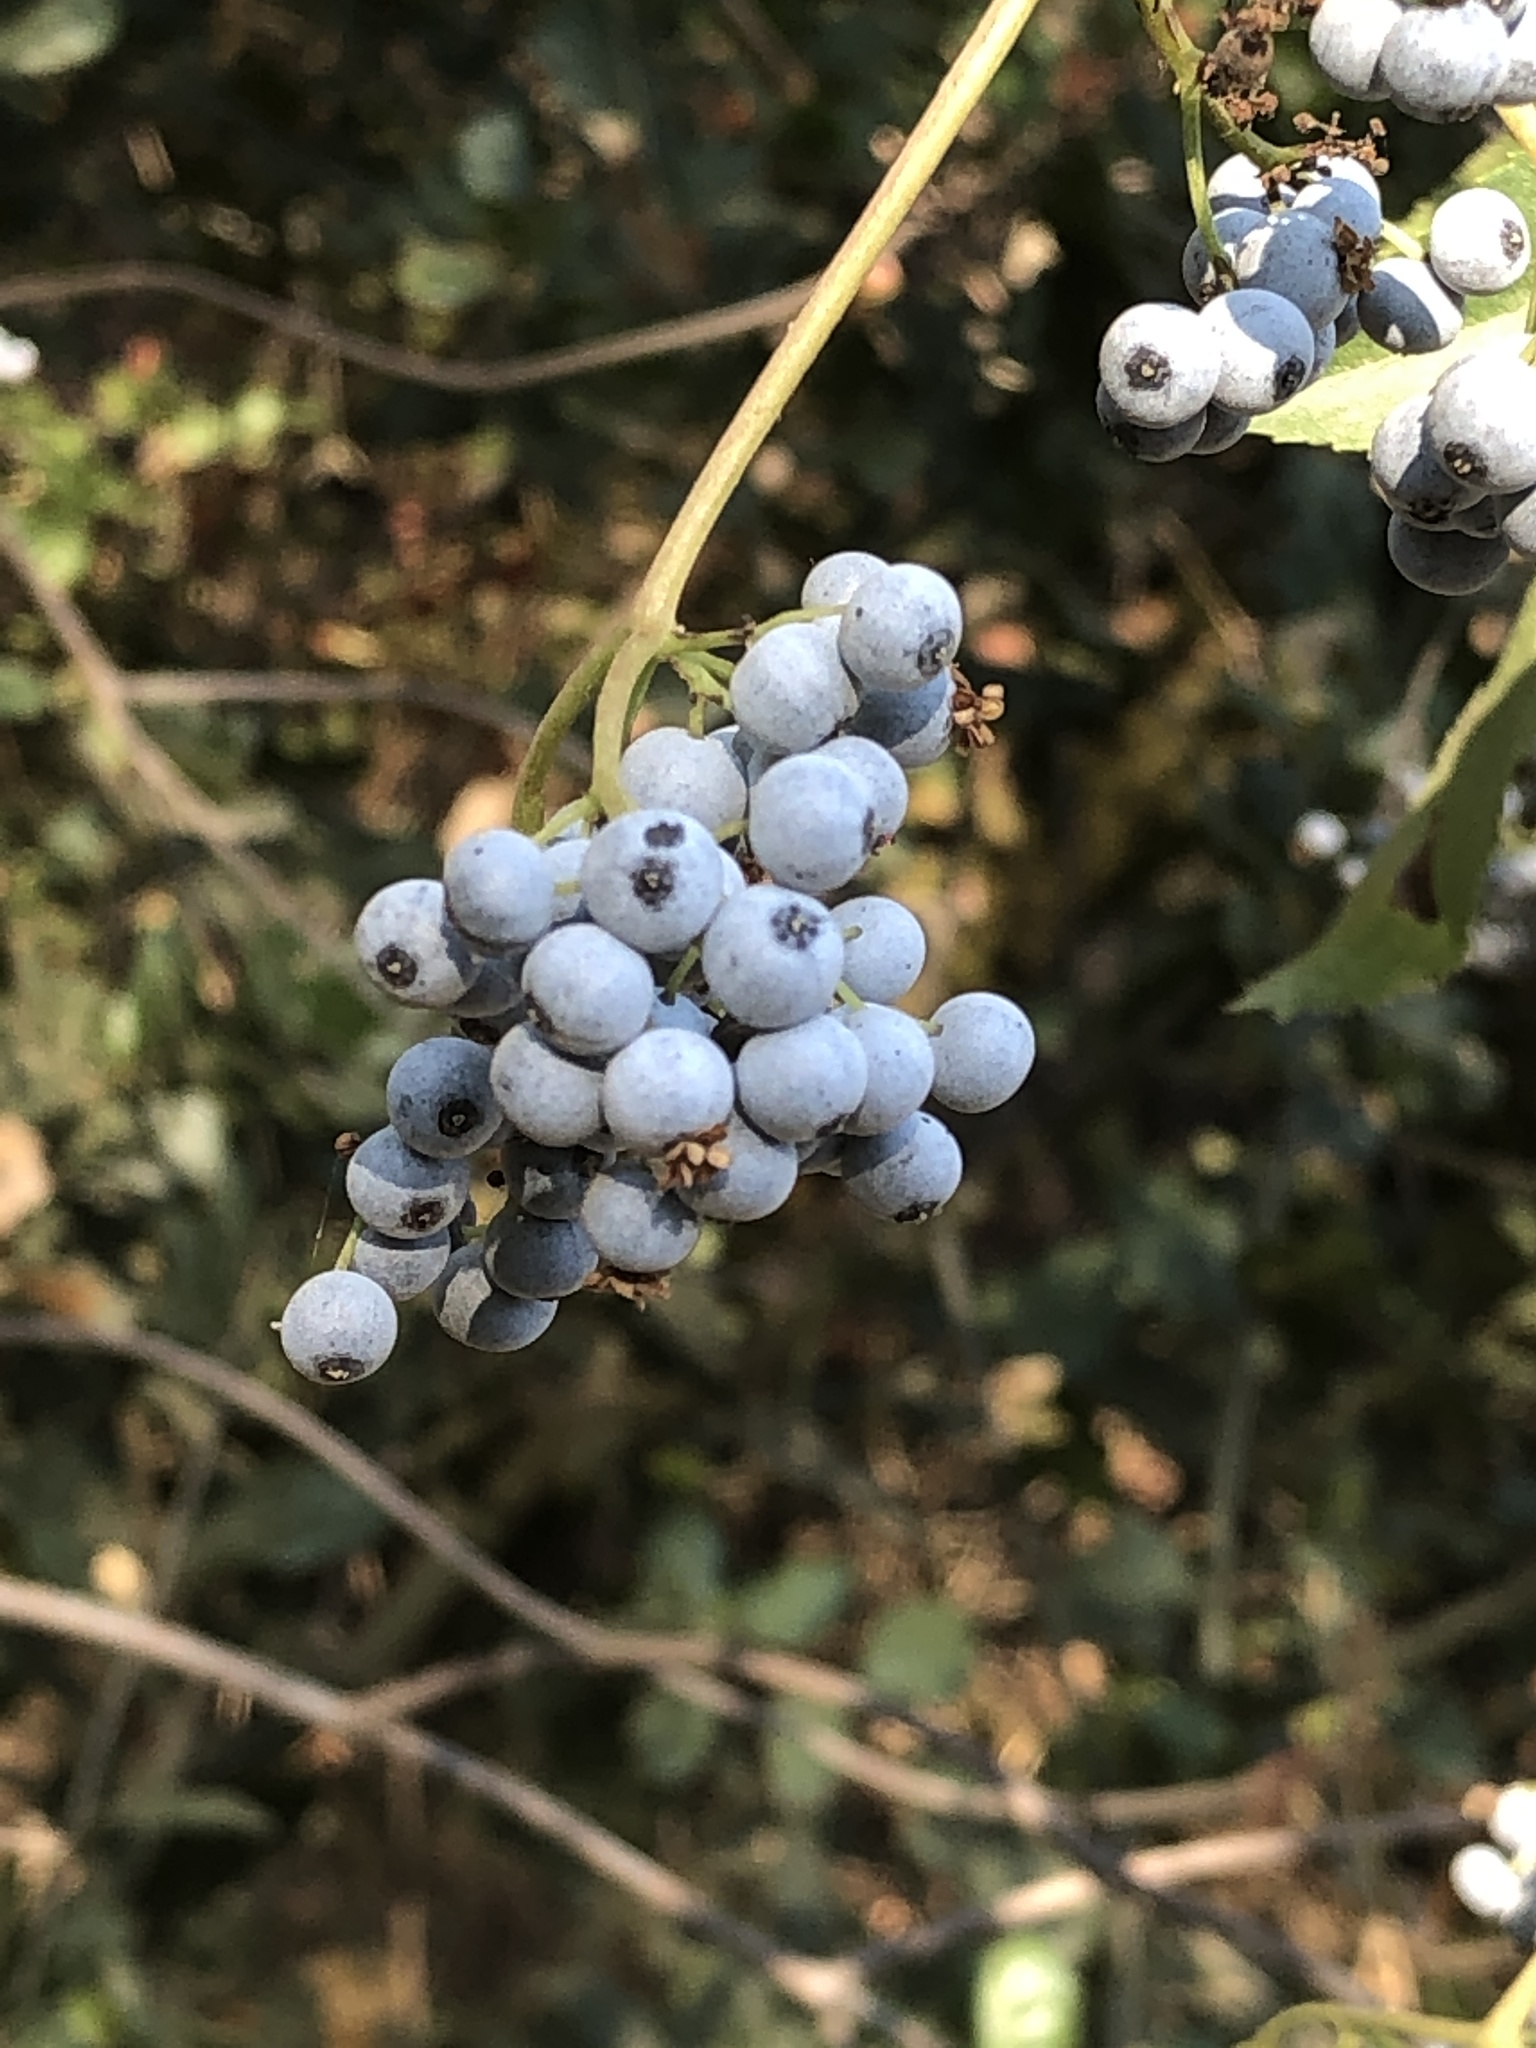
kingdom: Plantae
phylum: Tracheophyta
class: Magnoliopsida
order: Dipsacales
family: Viburnaceae
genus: Sambucus
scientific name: Sambucus cerulea
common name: Blue elder
